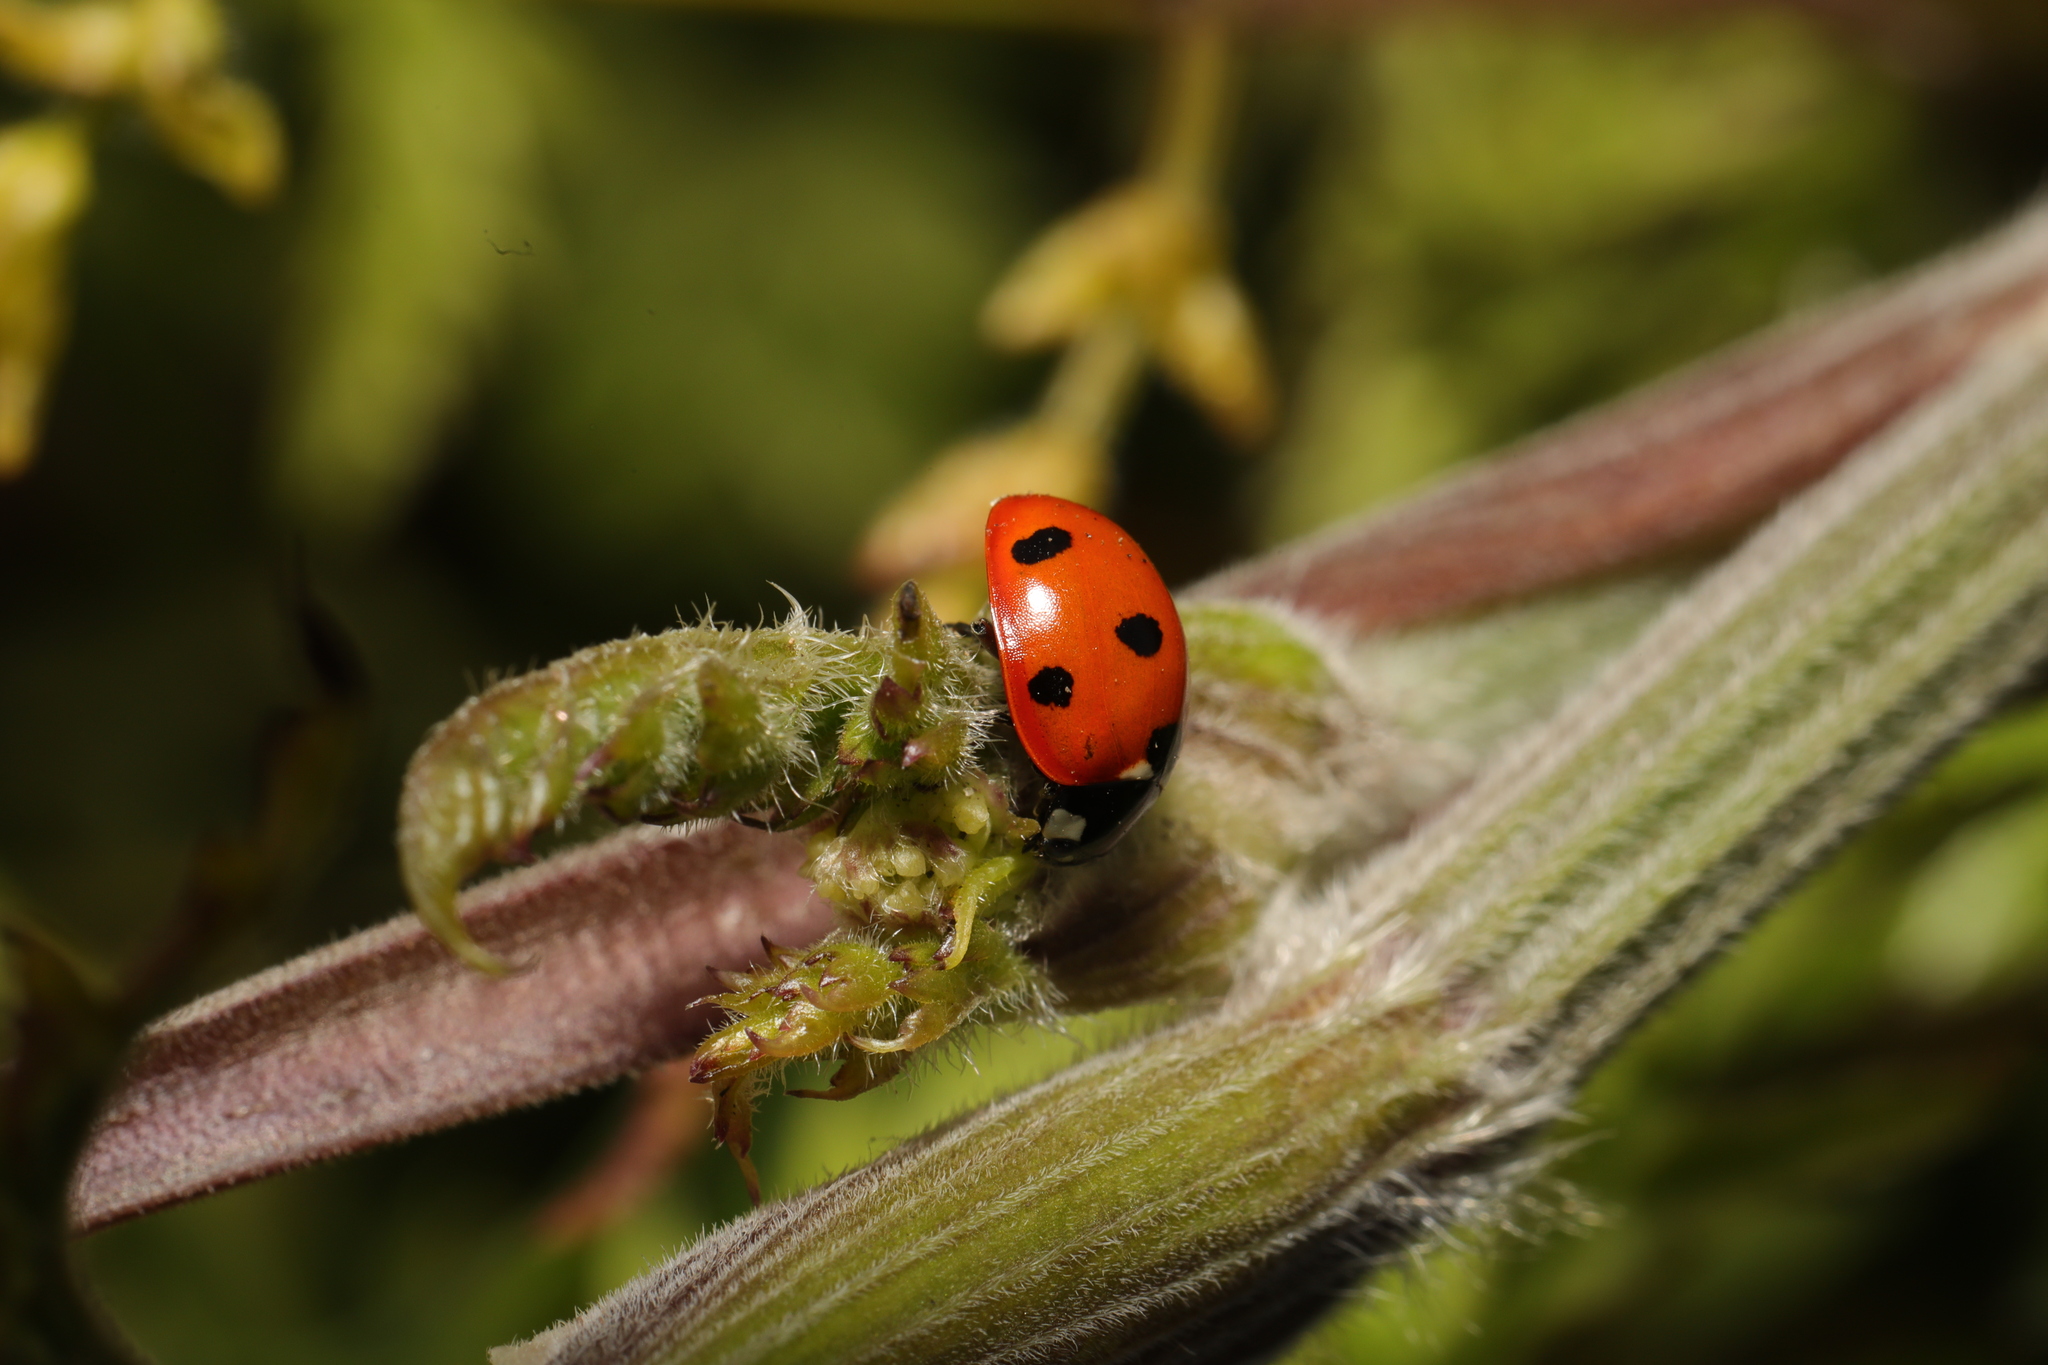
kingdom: Animalia
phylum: Arthropoda
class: Insecta
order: Coleoptera
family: Coccinellidae
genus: Coccinella
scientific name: Coccinella septempunctata
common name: Sevenspotted lady beetle
